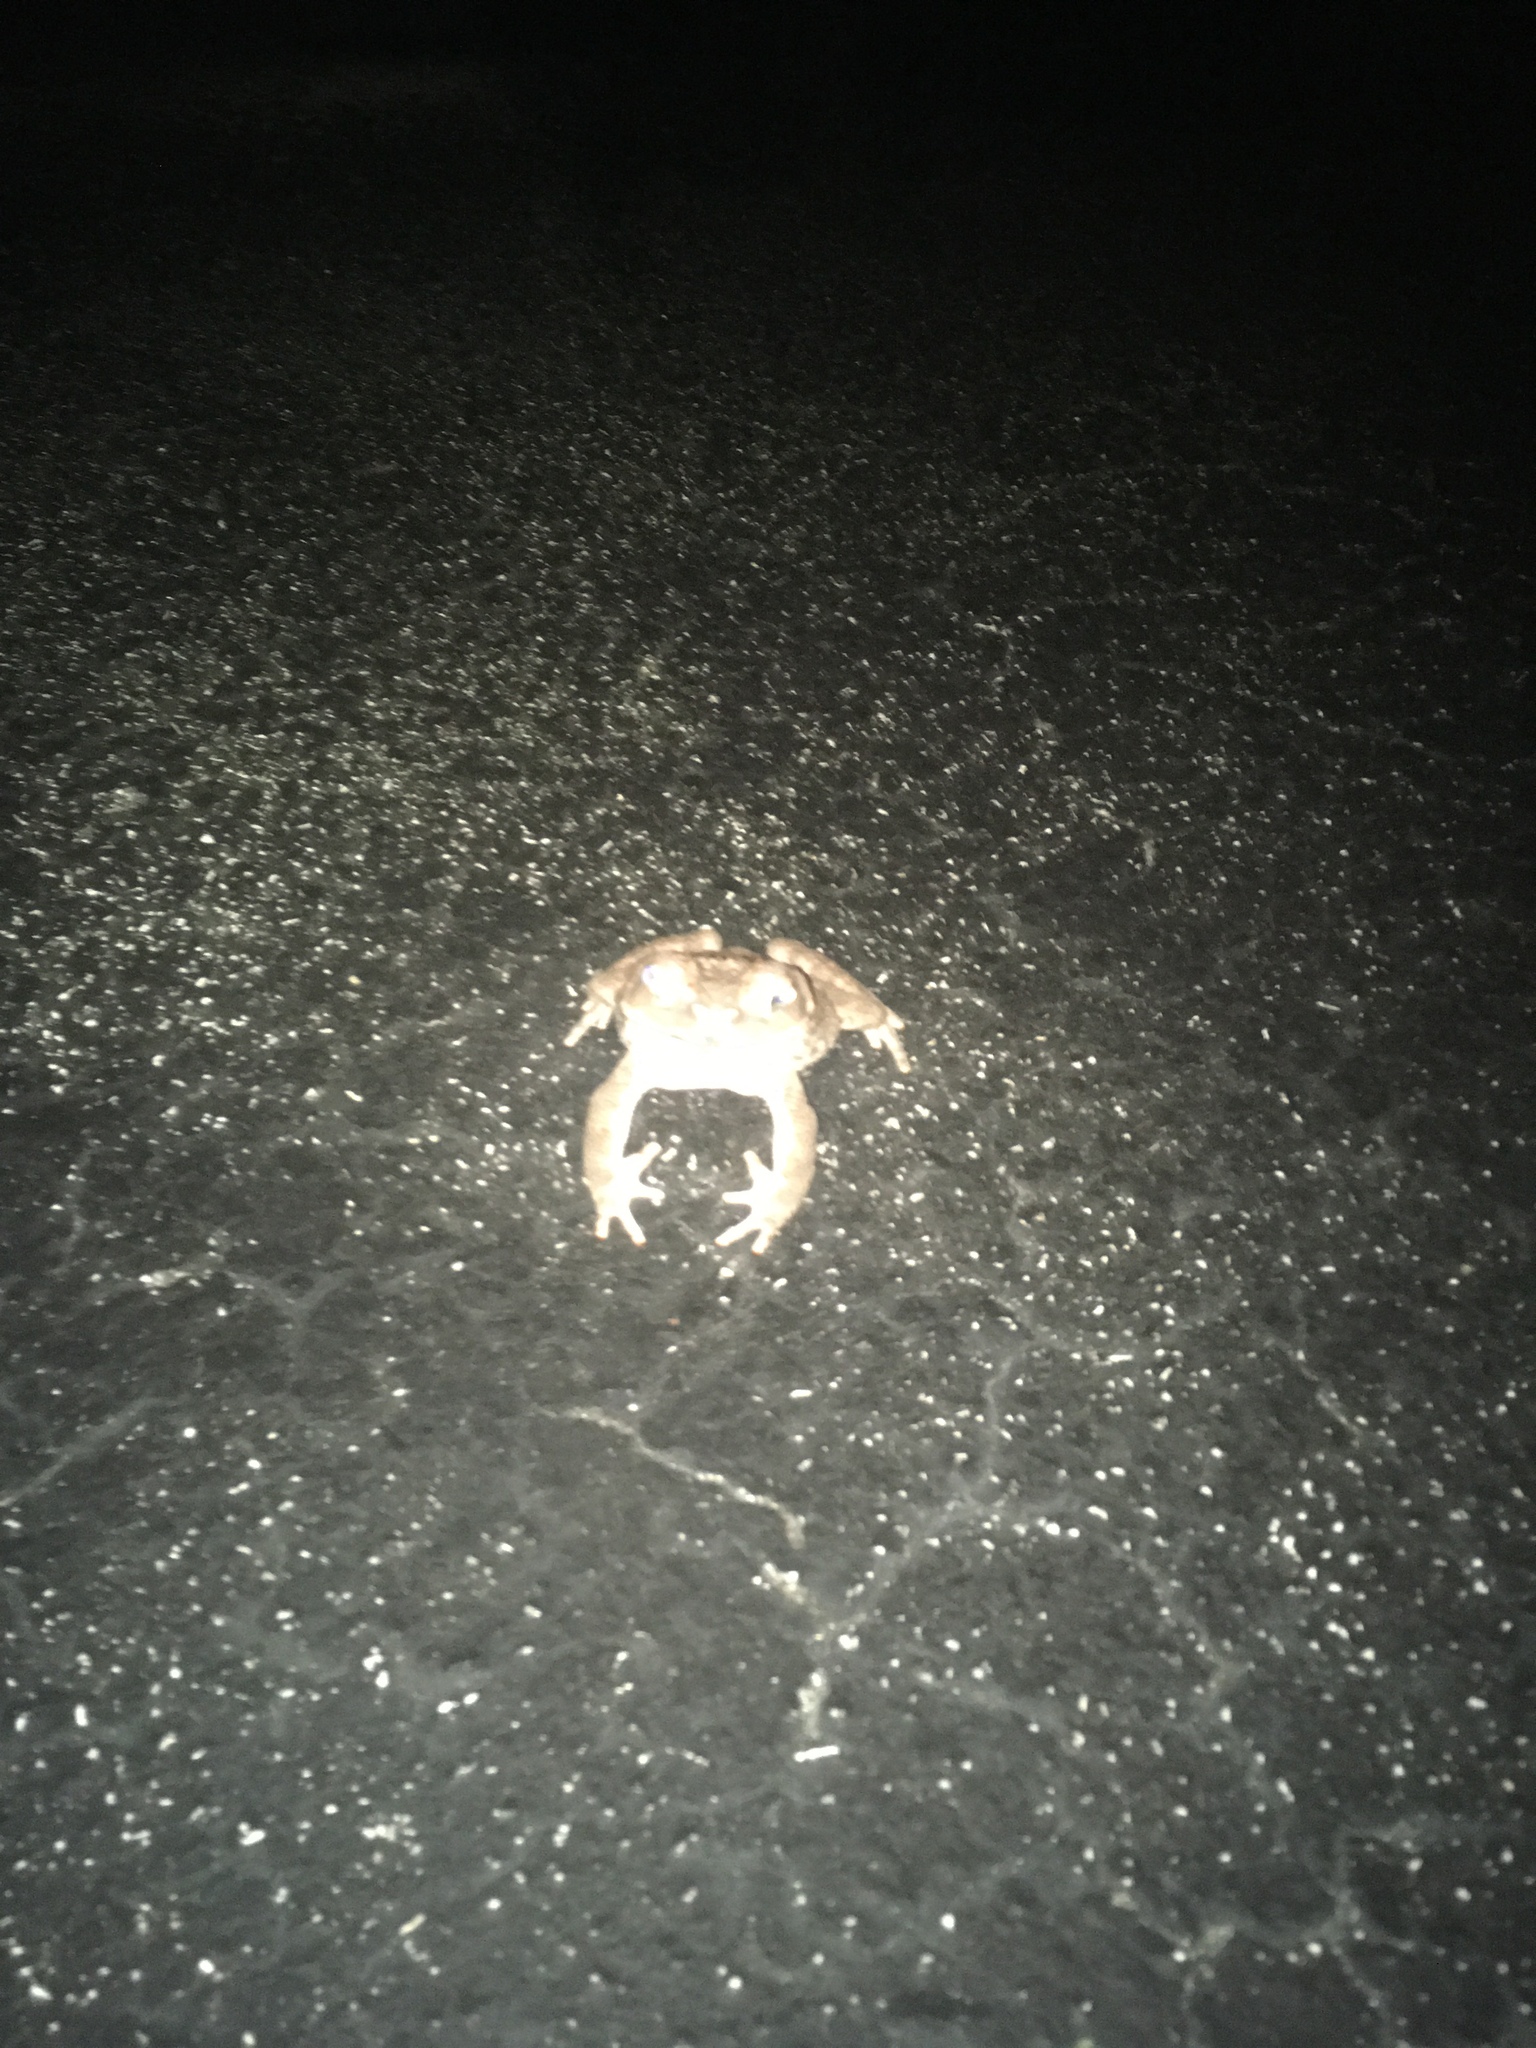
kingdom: Animalia
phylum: Chordata
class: Amphibia
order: Anura
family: Bufonidae
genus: Rhinella
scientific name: Rhinella marina
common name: Cane toad
